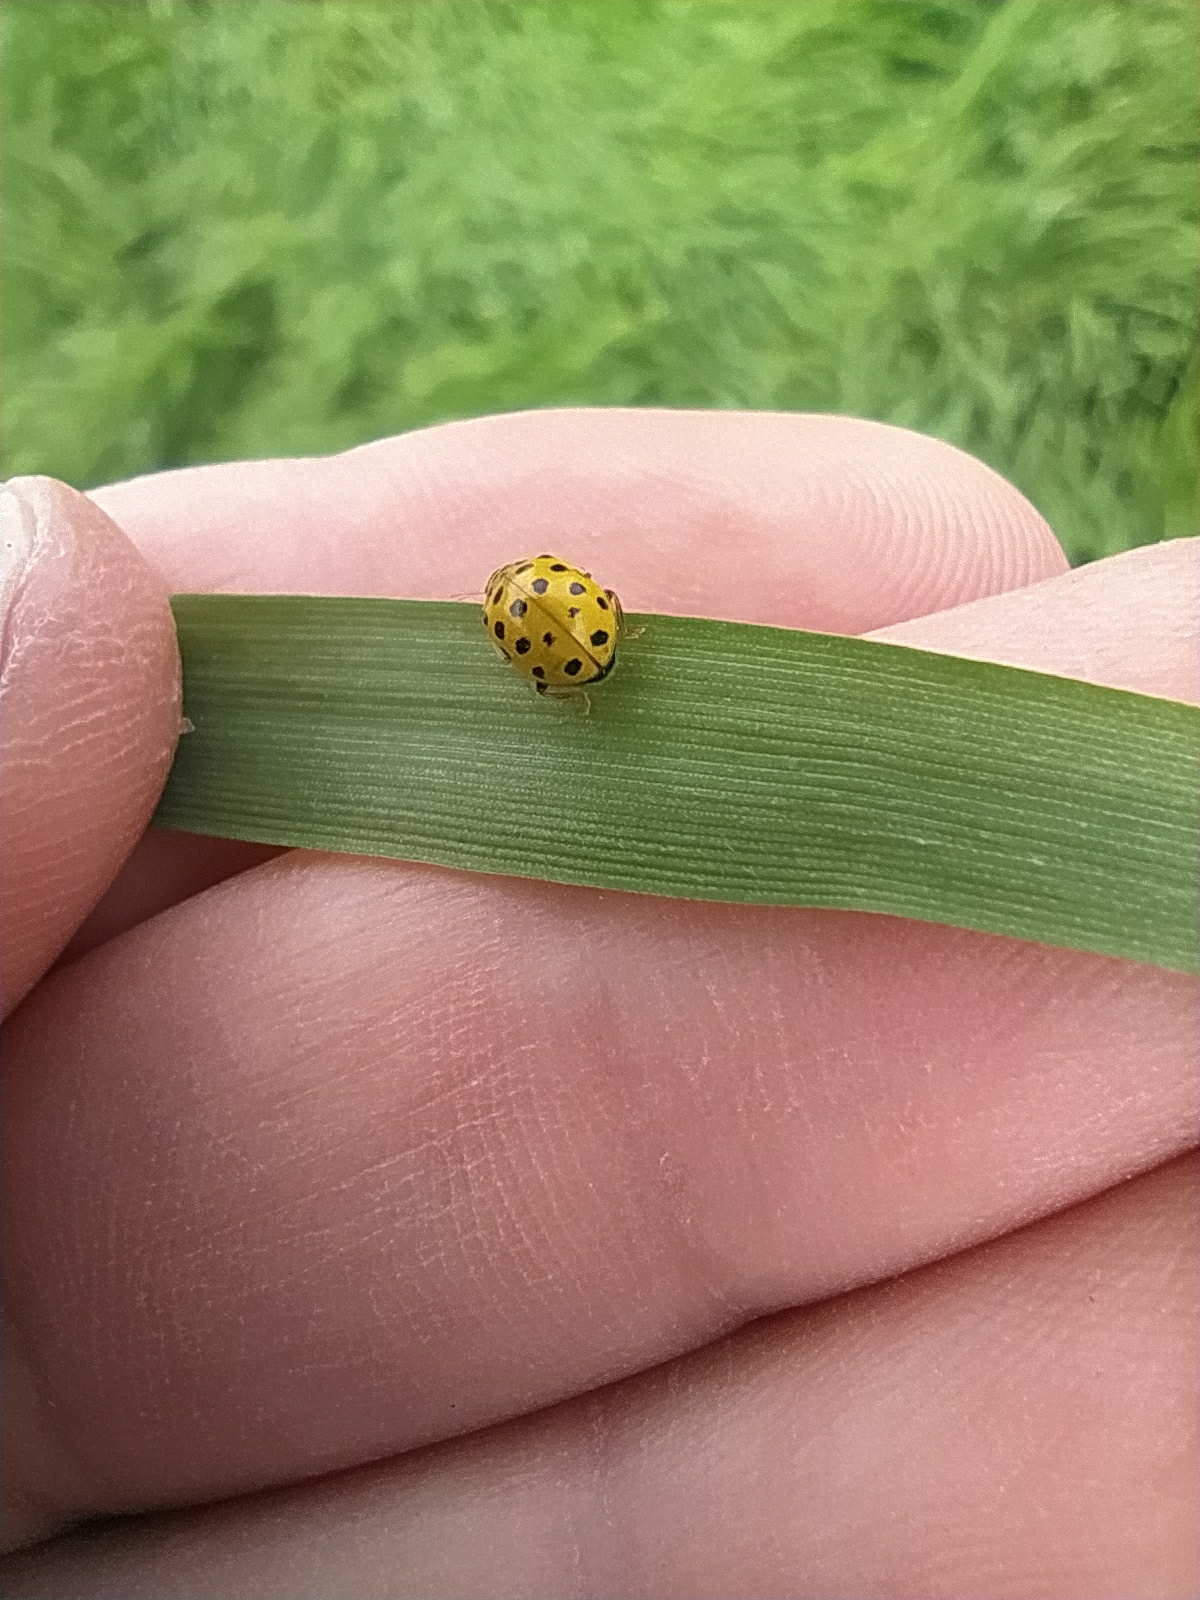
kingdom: Animalia
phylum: Arthropoda
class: Insecta
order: Coleoptera
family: Coccinellidae
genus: Psyllobora
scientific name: Psyllobora vigintiduopunctata
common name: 22-spot ladybird
